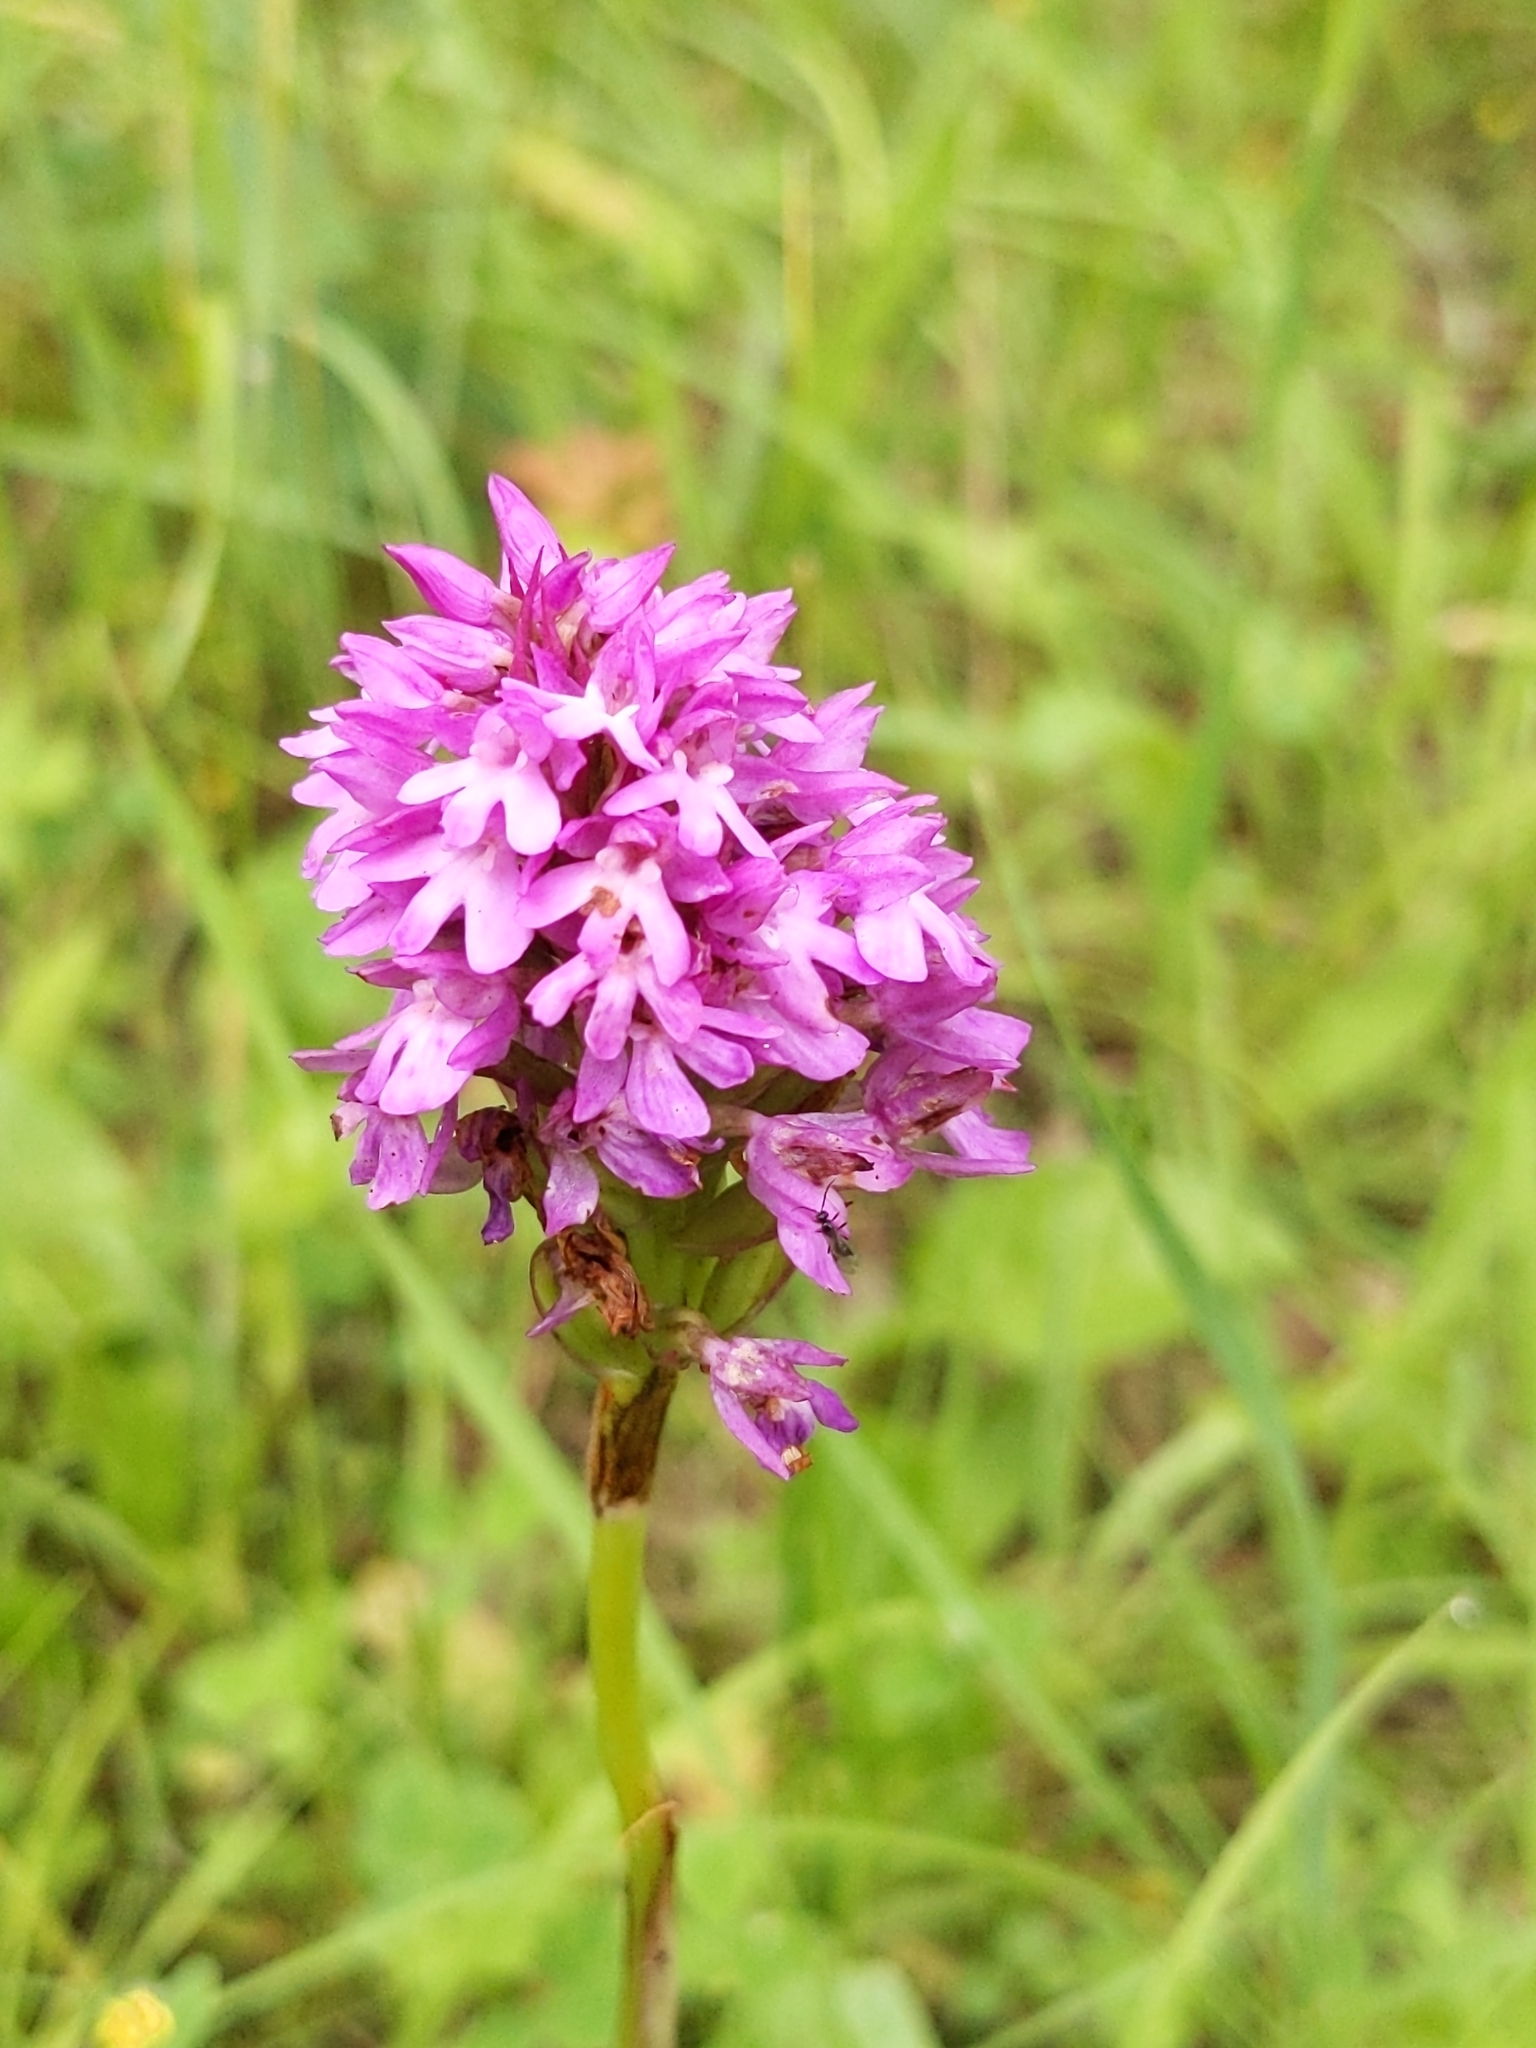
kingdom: Plantae
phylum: Tracheophyta
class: Liliopsida
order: Asparagales
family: Orchidaceae
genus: Anacamptis
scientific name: Anacamptis pyramidalis
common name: Pyramidal orchid
